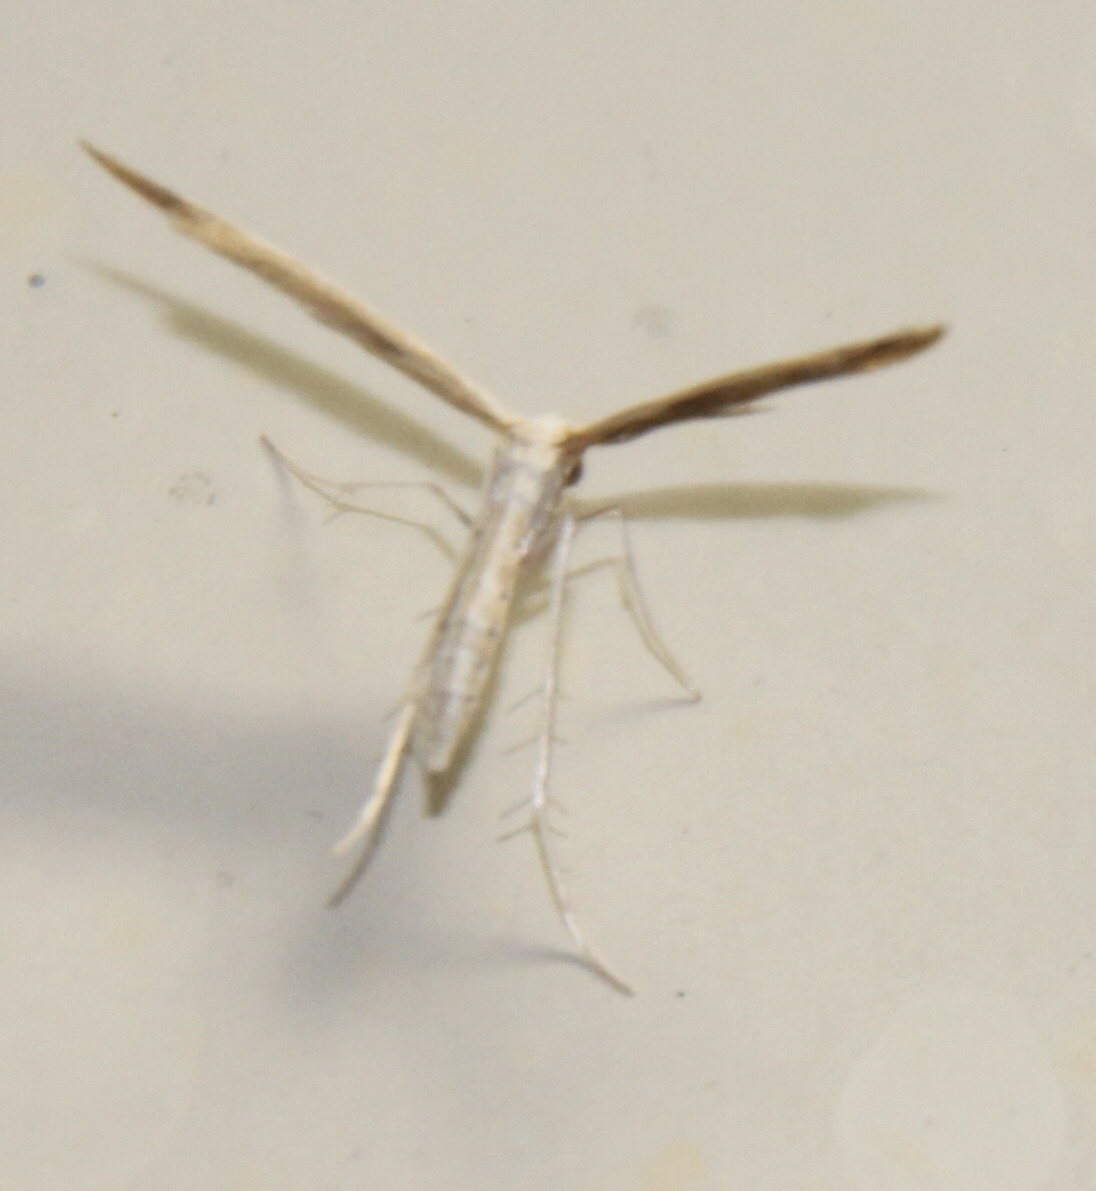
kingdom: Animalia
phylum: Arthropoda
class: Insecta
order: Lepidoptera
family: Pterophoridae
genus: Lioptilodes
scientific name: Lioptilodes albistriolatus
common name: Moth
